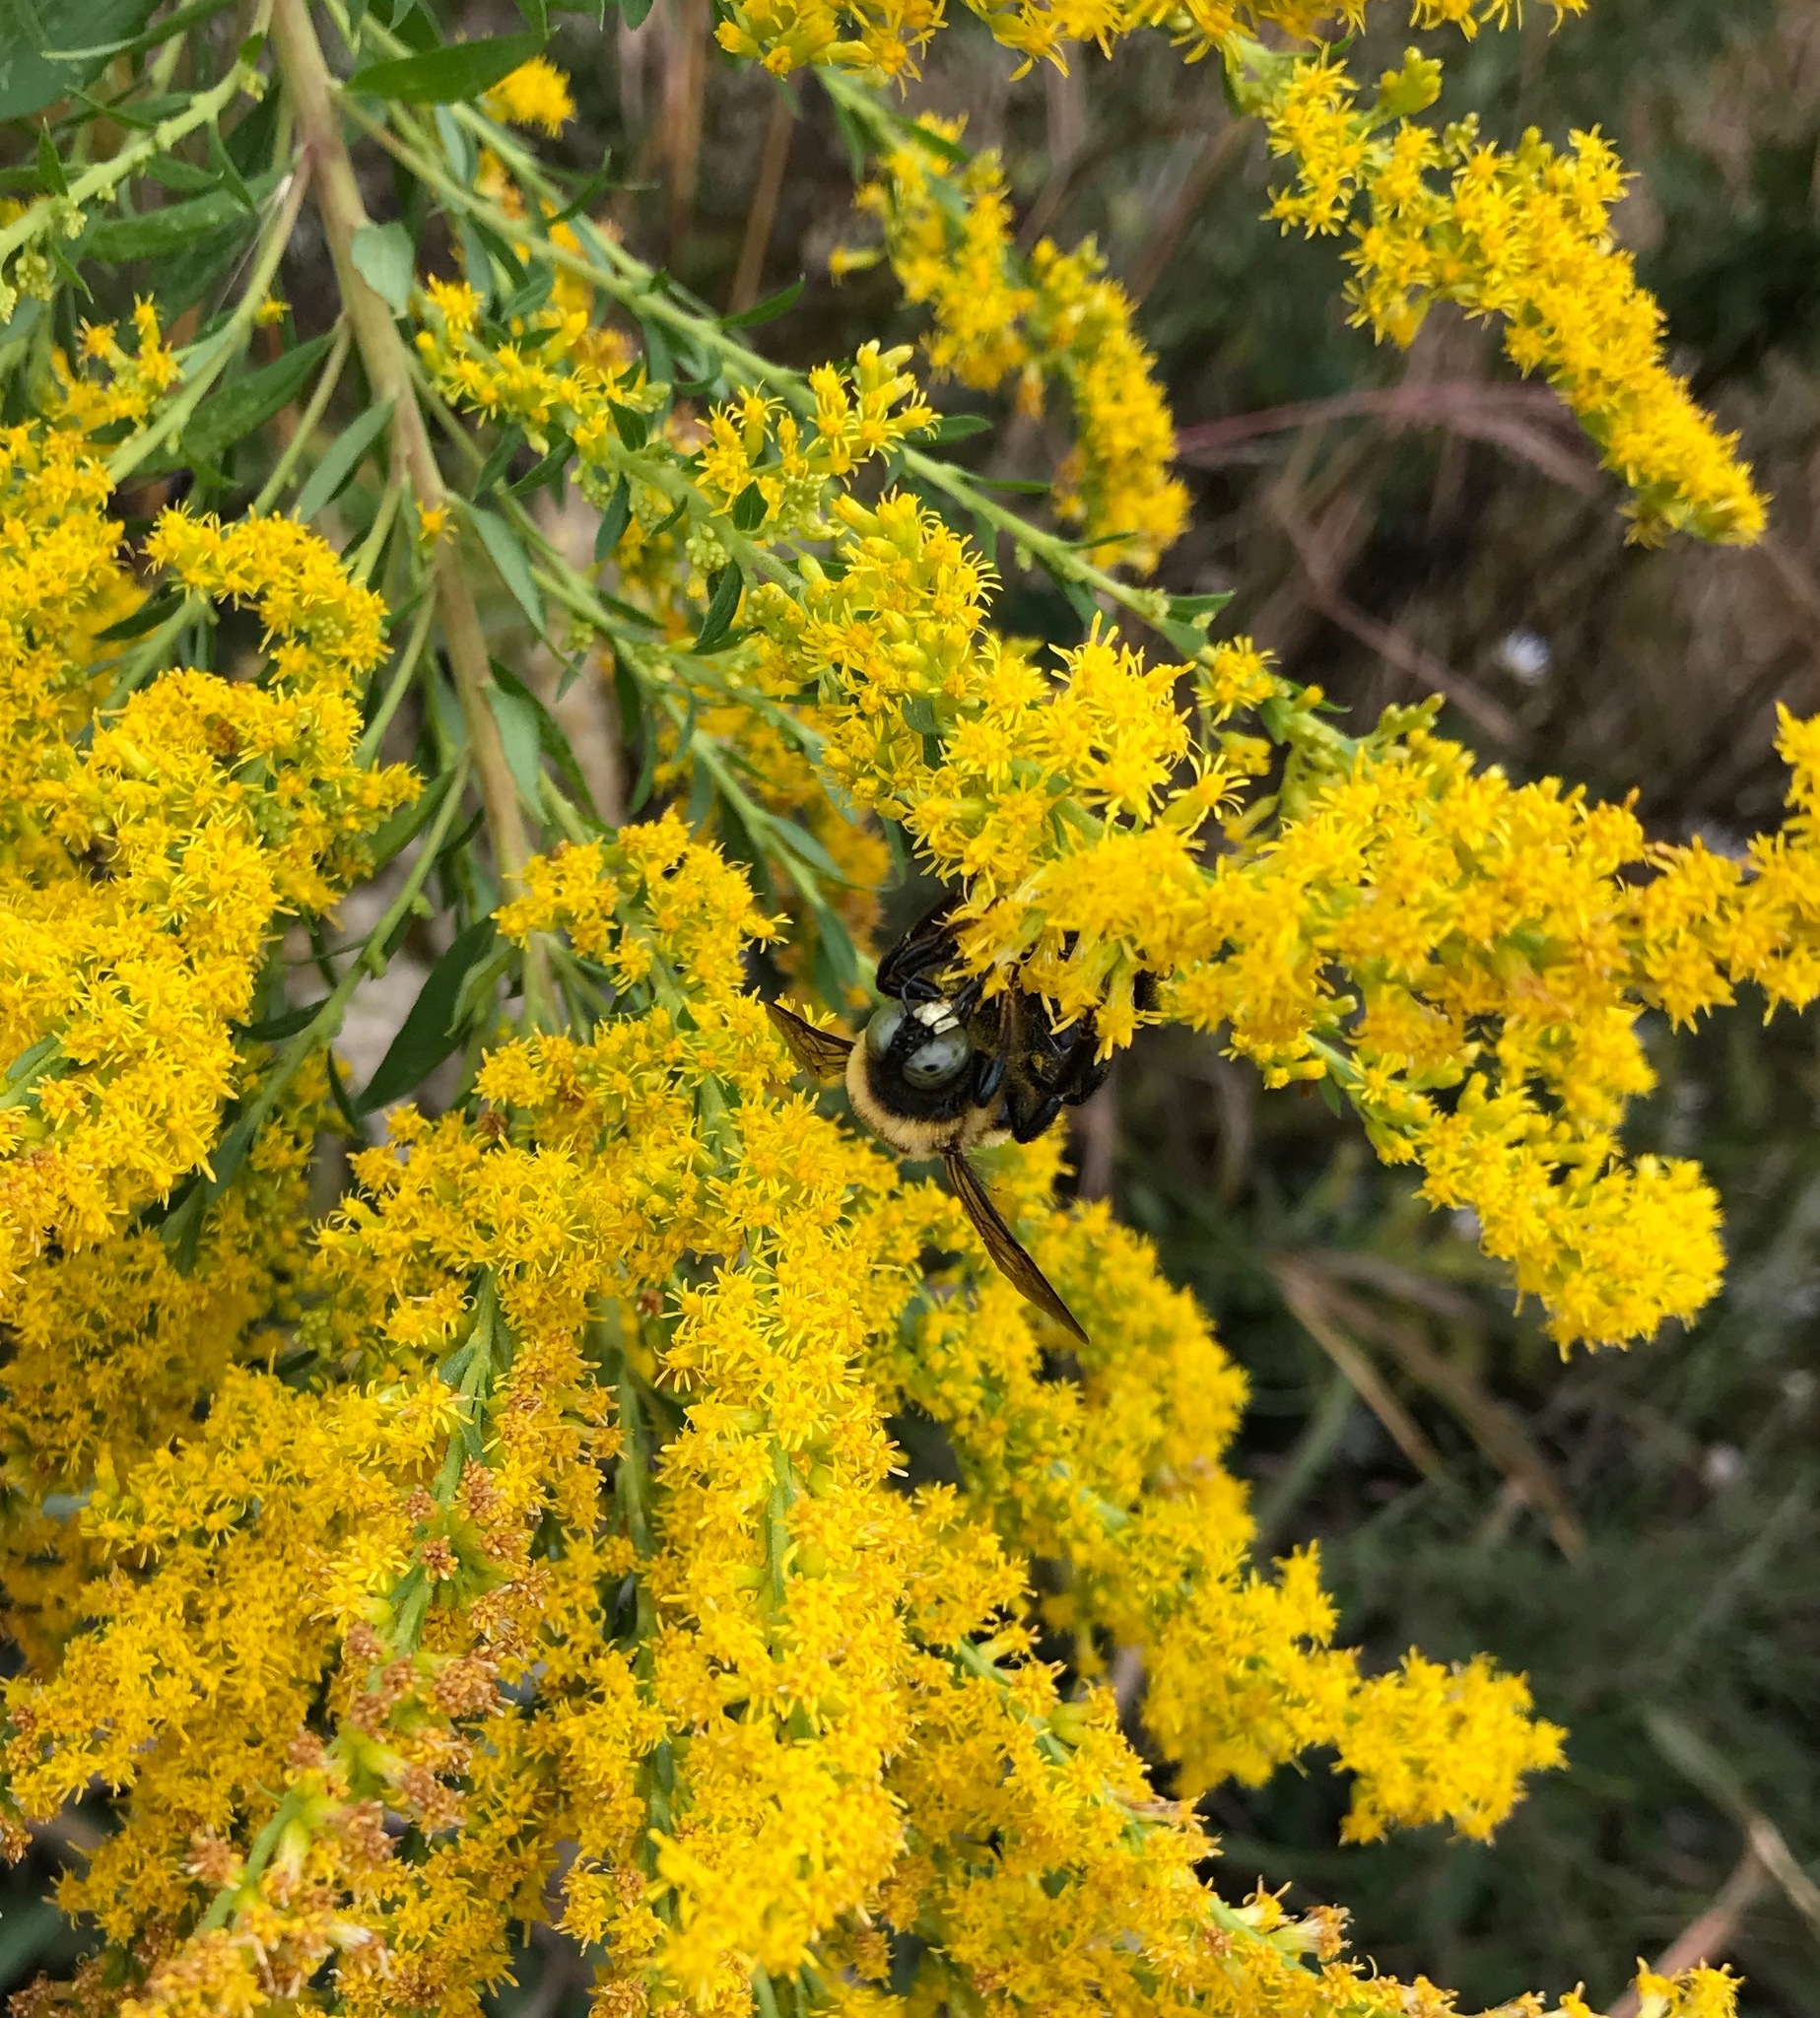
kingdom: Animalia
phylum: Arthropoda
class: Insecta
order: Hymenoptera
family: Apidae
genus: Xylocopa
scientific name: Xylocopa virginica
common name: Carpenter bee
